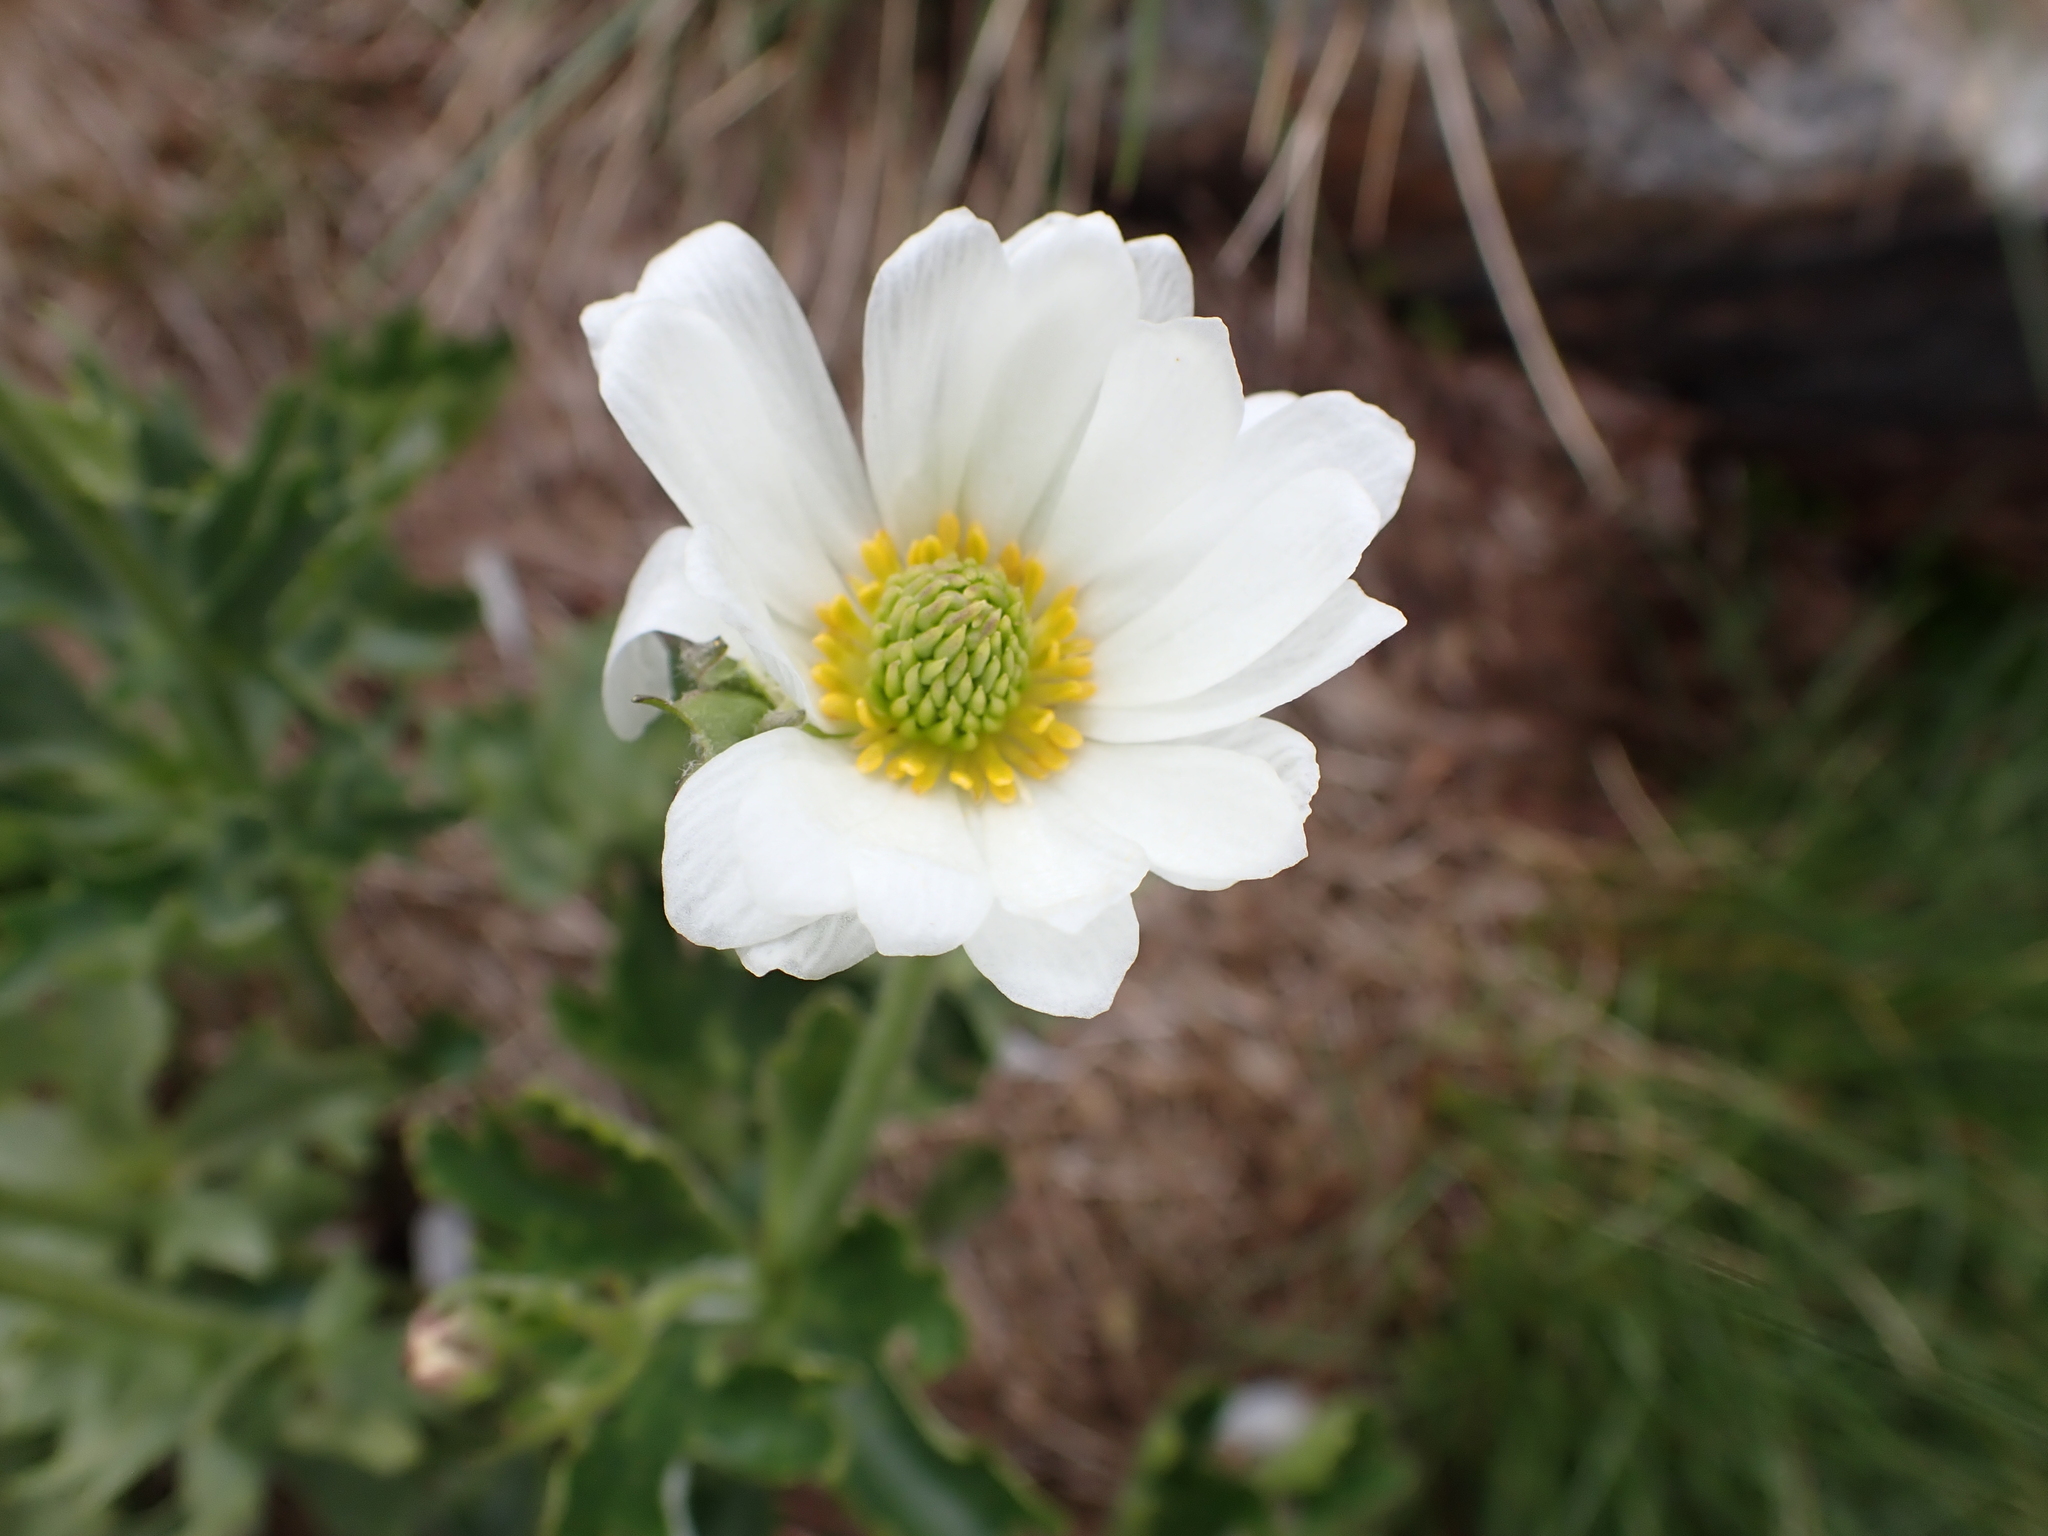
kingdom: Plantae
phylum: Tracheophyta
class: Magnoliopsida
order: Ranunculales
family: Ranunculaceae
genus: Ranunculus
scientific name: Ranunculus anemoneus
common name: Anemone buttercup
